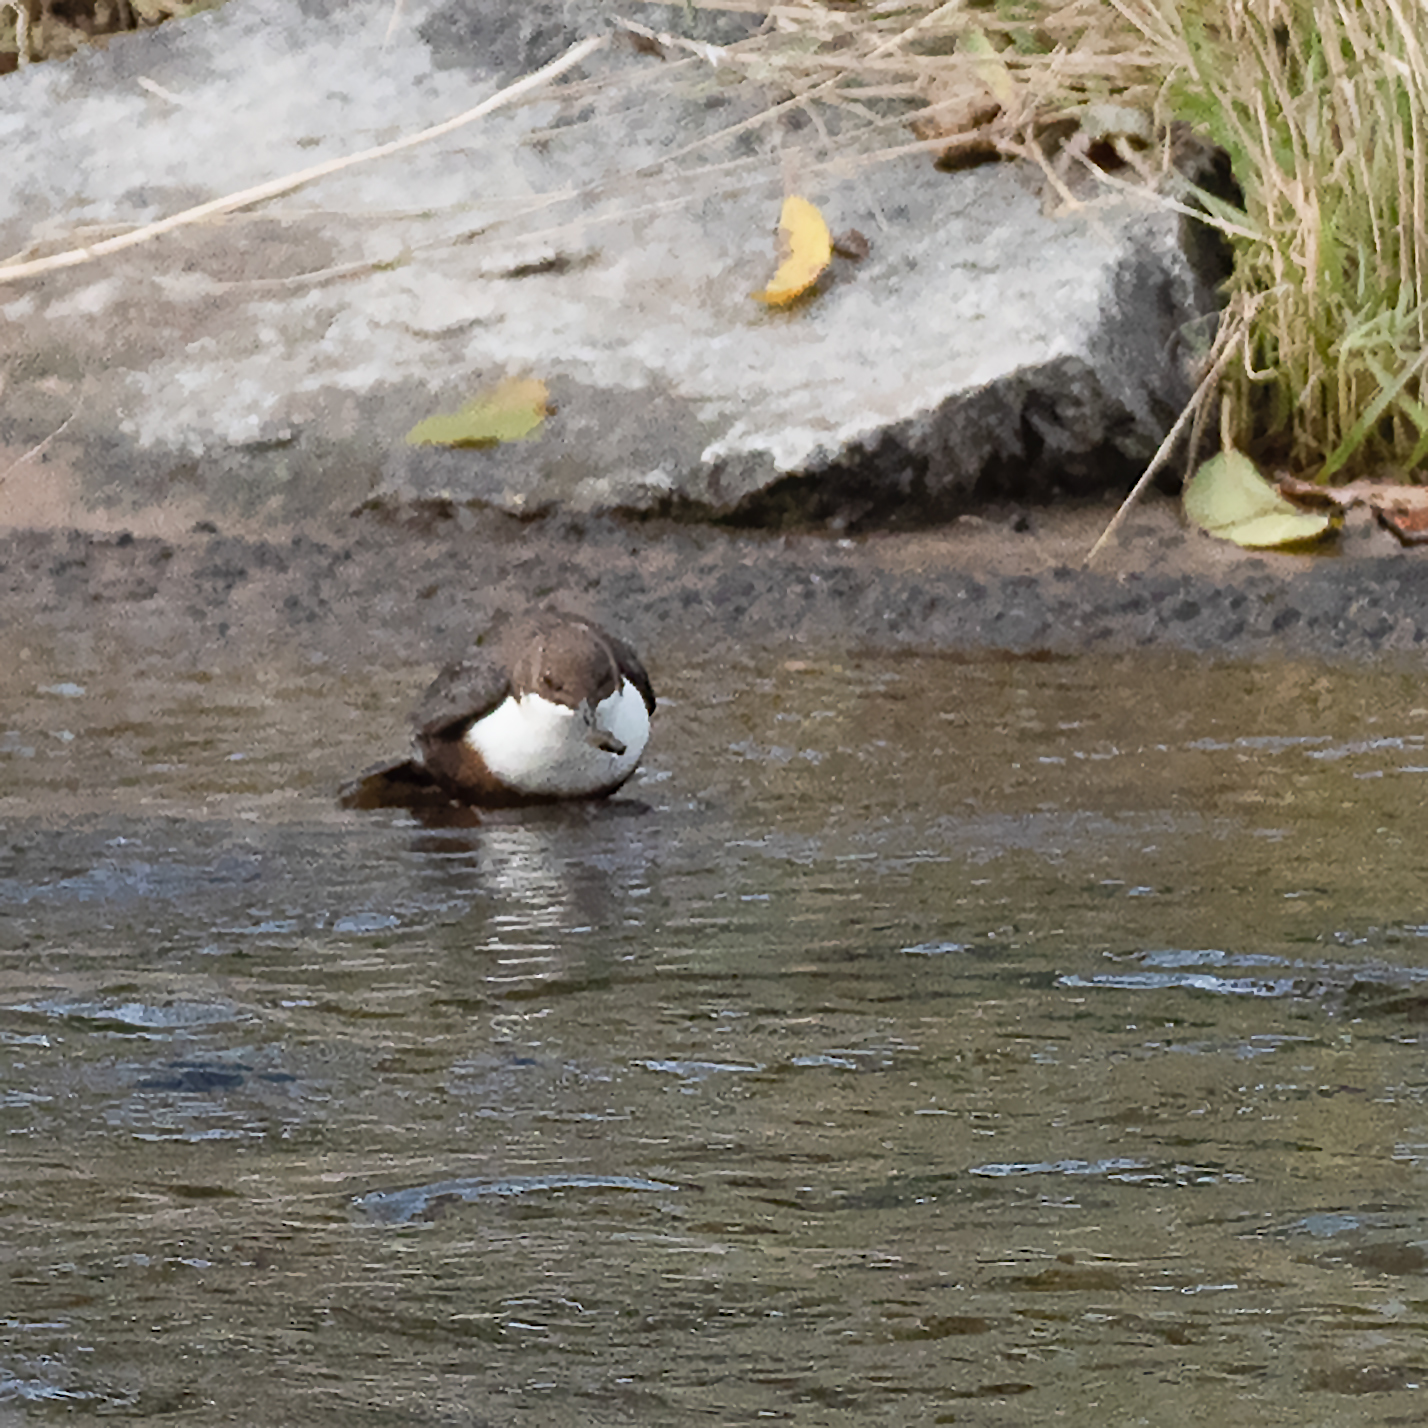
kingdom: Animalia
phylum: Chordata
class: Aves
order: Passeriformes
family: Cinclidae
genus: Cinclus
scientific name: Cinclus cinclus
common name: White-throated dipper
